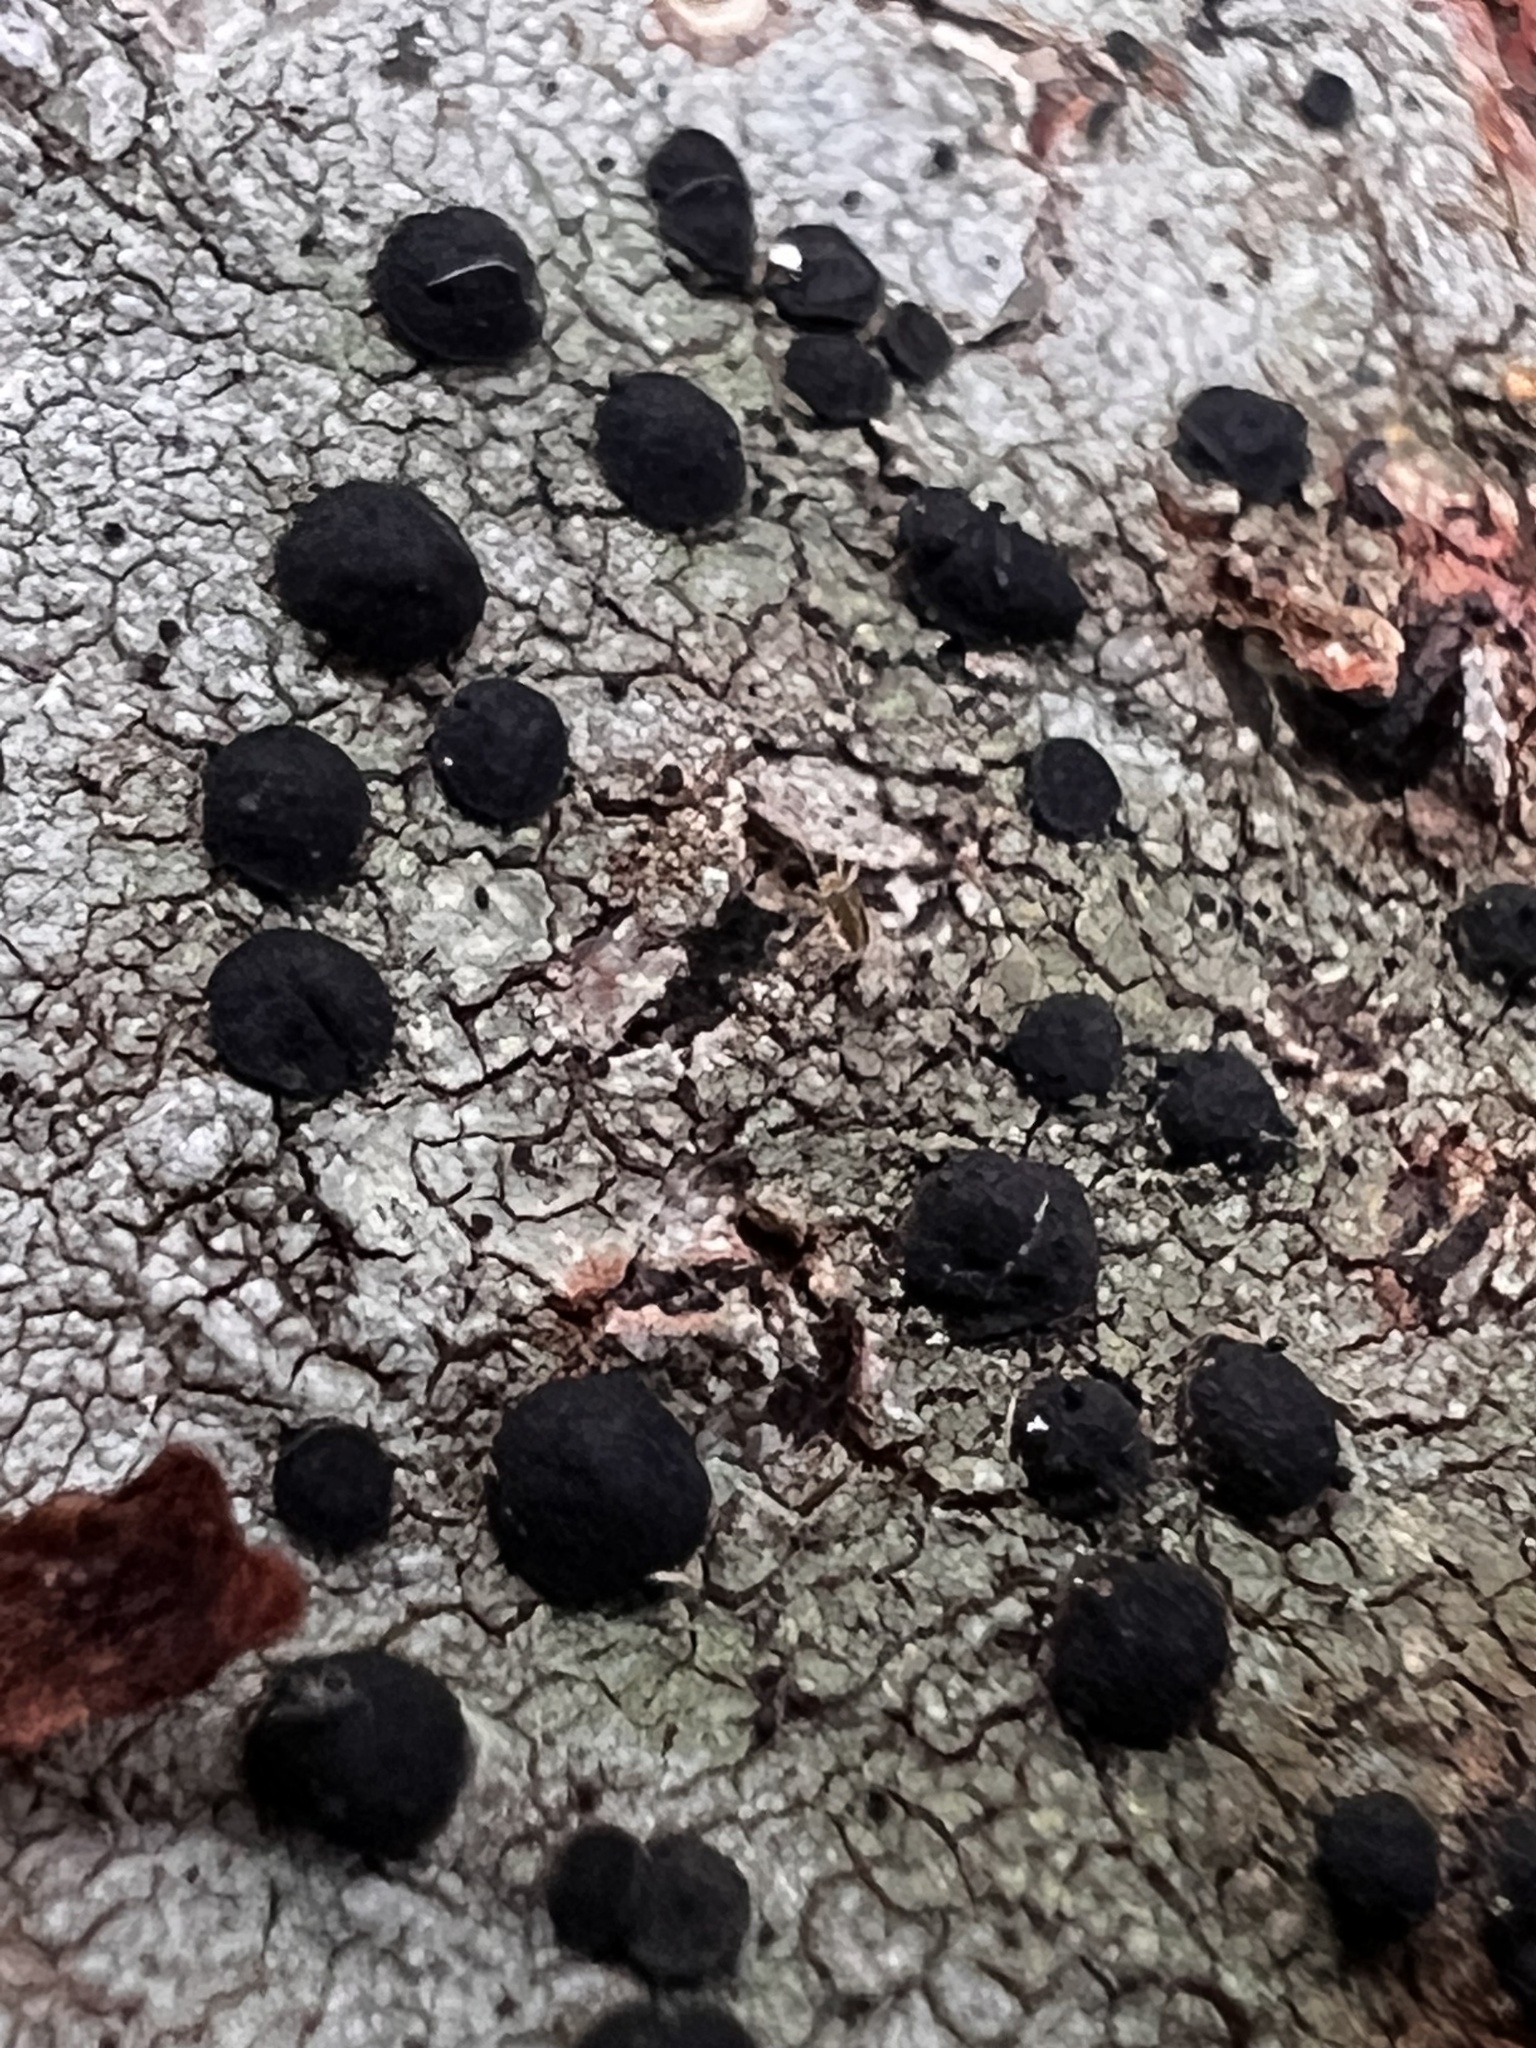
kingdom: Fungi
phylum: Ascomycota
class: Lecanoromycetes
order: Caliciales
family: Caliciaceae
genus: Buellia
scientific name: Buellia erubescens
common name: Common button lichen
